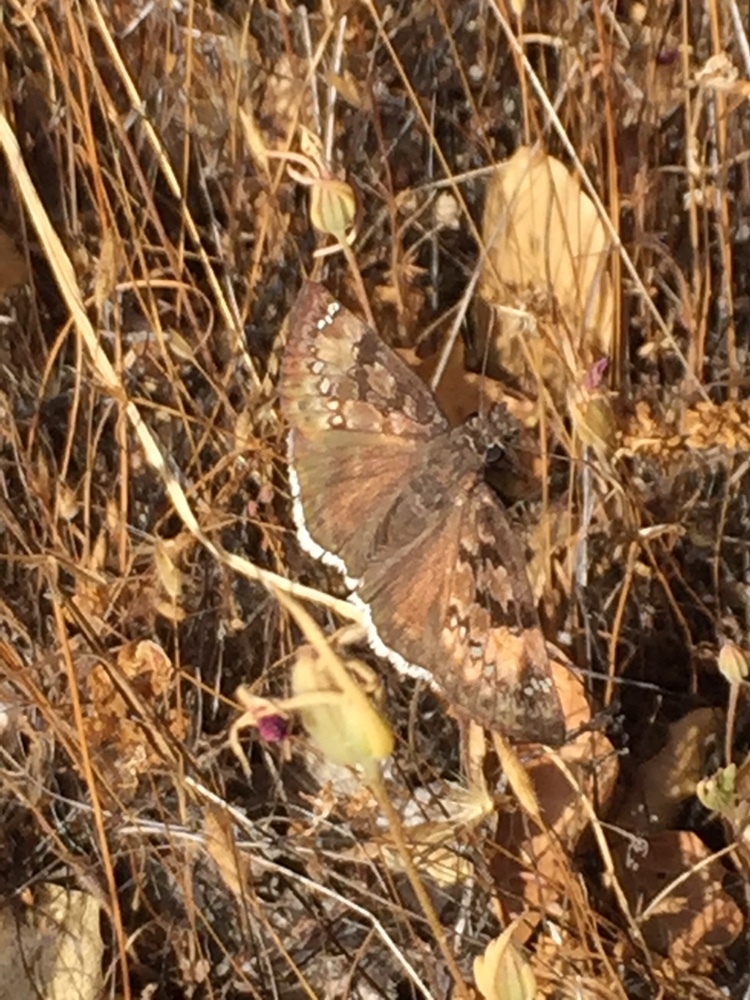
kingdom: Animalia
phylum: Arthropoda
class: Insecta
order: Lepidoptera
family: Hesperiidae
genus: Erynnis
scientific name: Erynnis tristis
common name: Mournful duskywing
